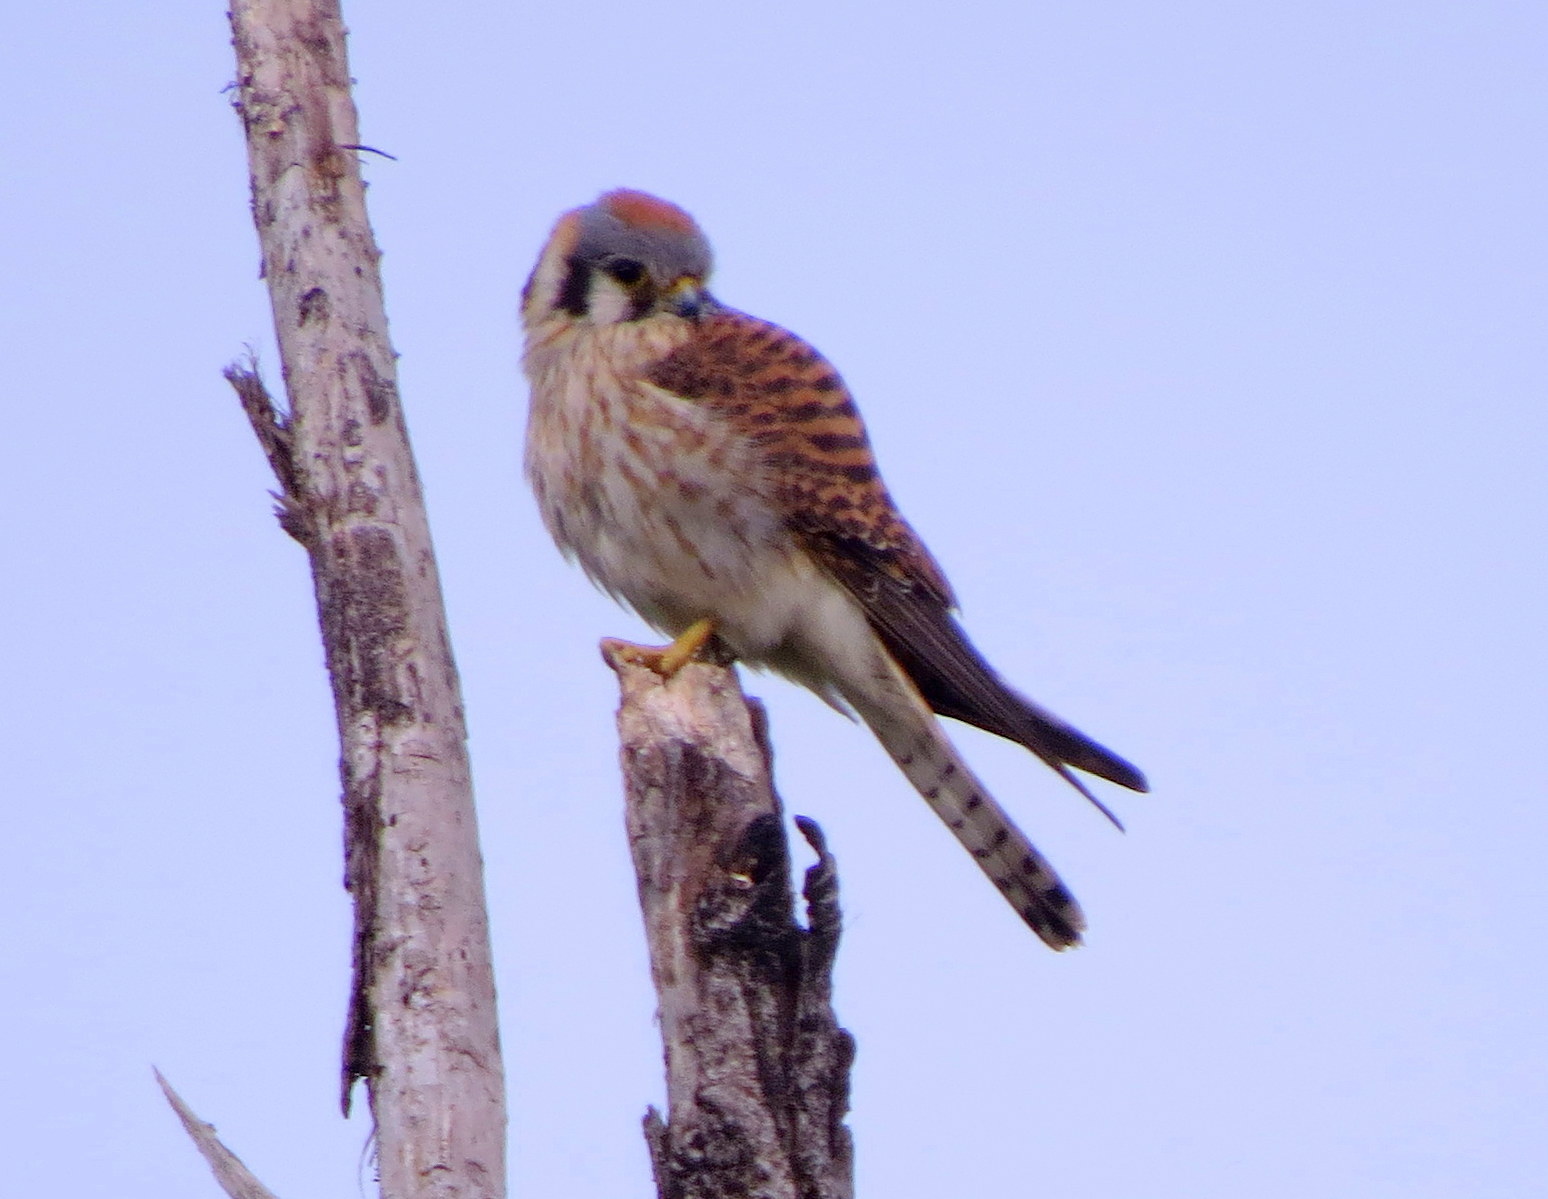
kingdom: Animalia
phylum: Chordata
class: Aves
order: Falconiformes
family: Falconidae
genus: Falco
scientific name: Falco sparverius
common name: American kestrel
